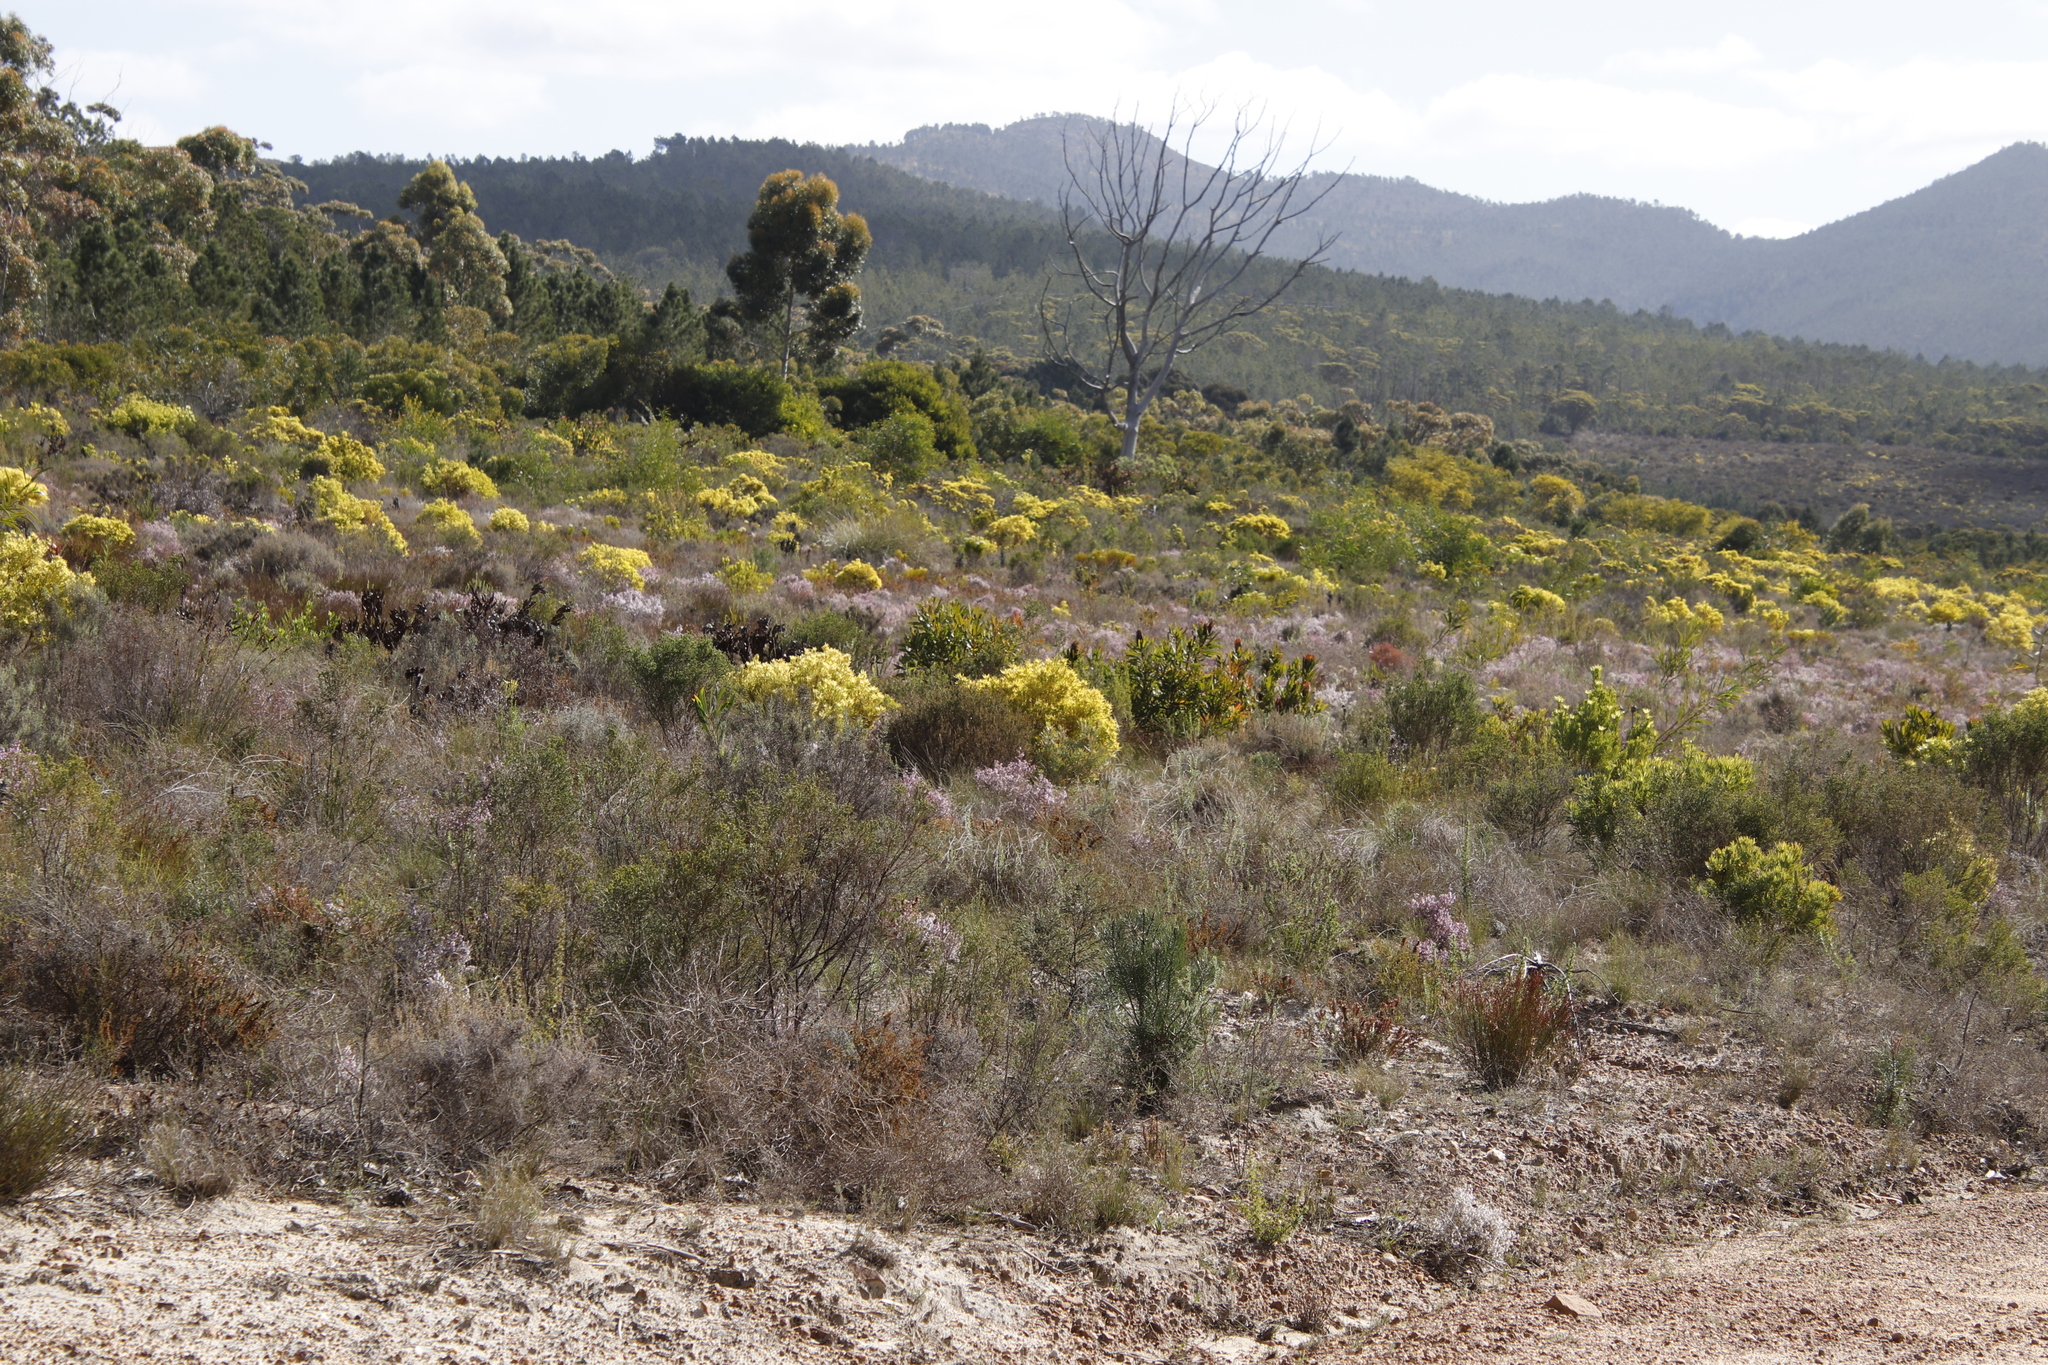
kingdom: Plantae
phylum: Tracheophyta
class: Magnoliopsida
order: Proteales
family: Proteaceae
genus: Leucadendron
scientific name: Leucadendron xanthoconus
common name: Sickle-leaf conebush
